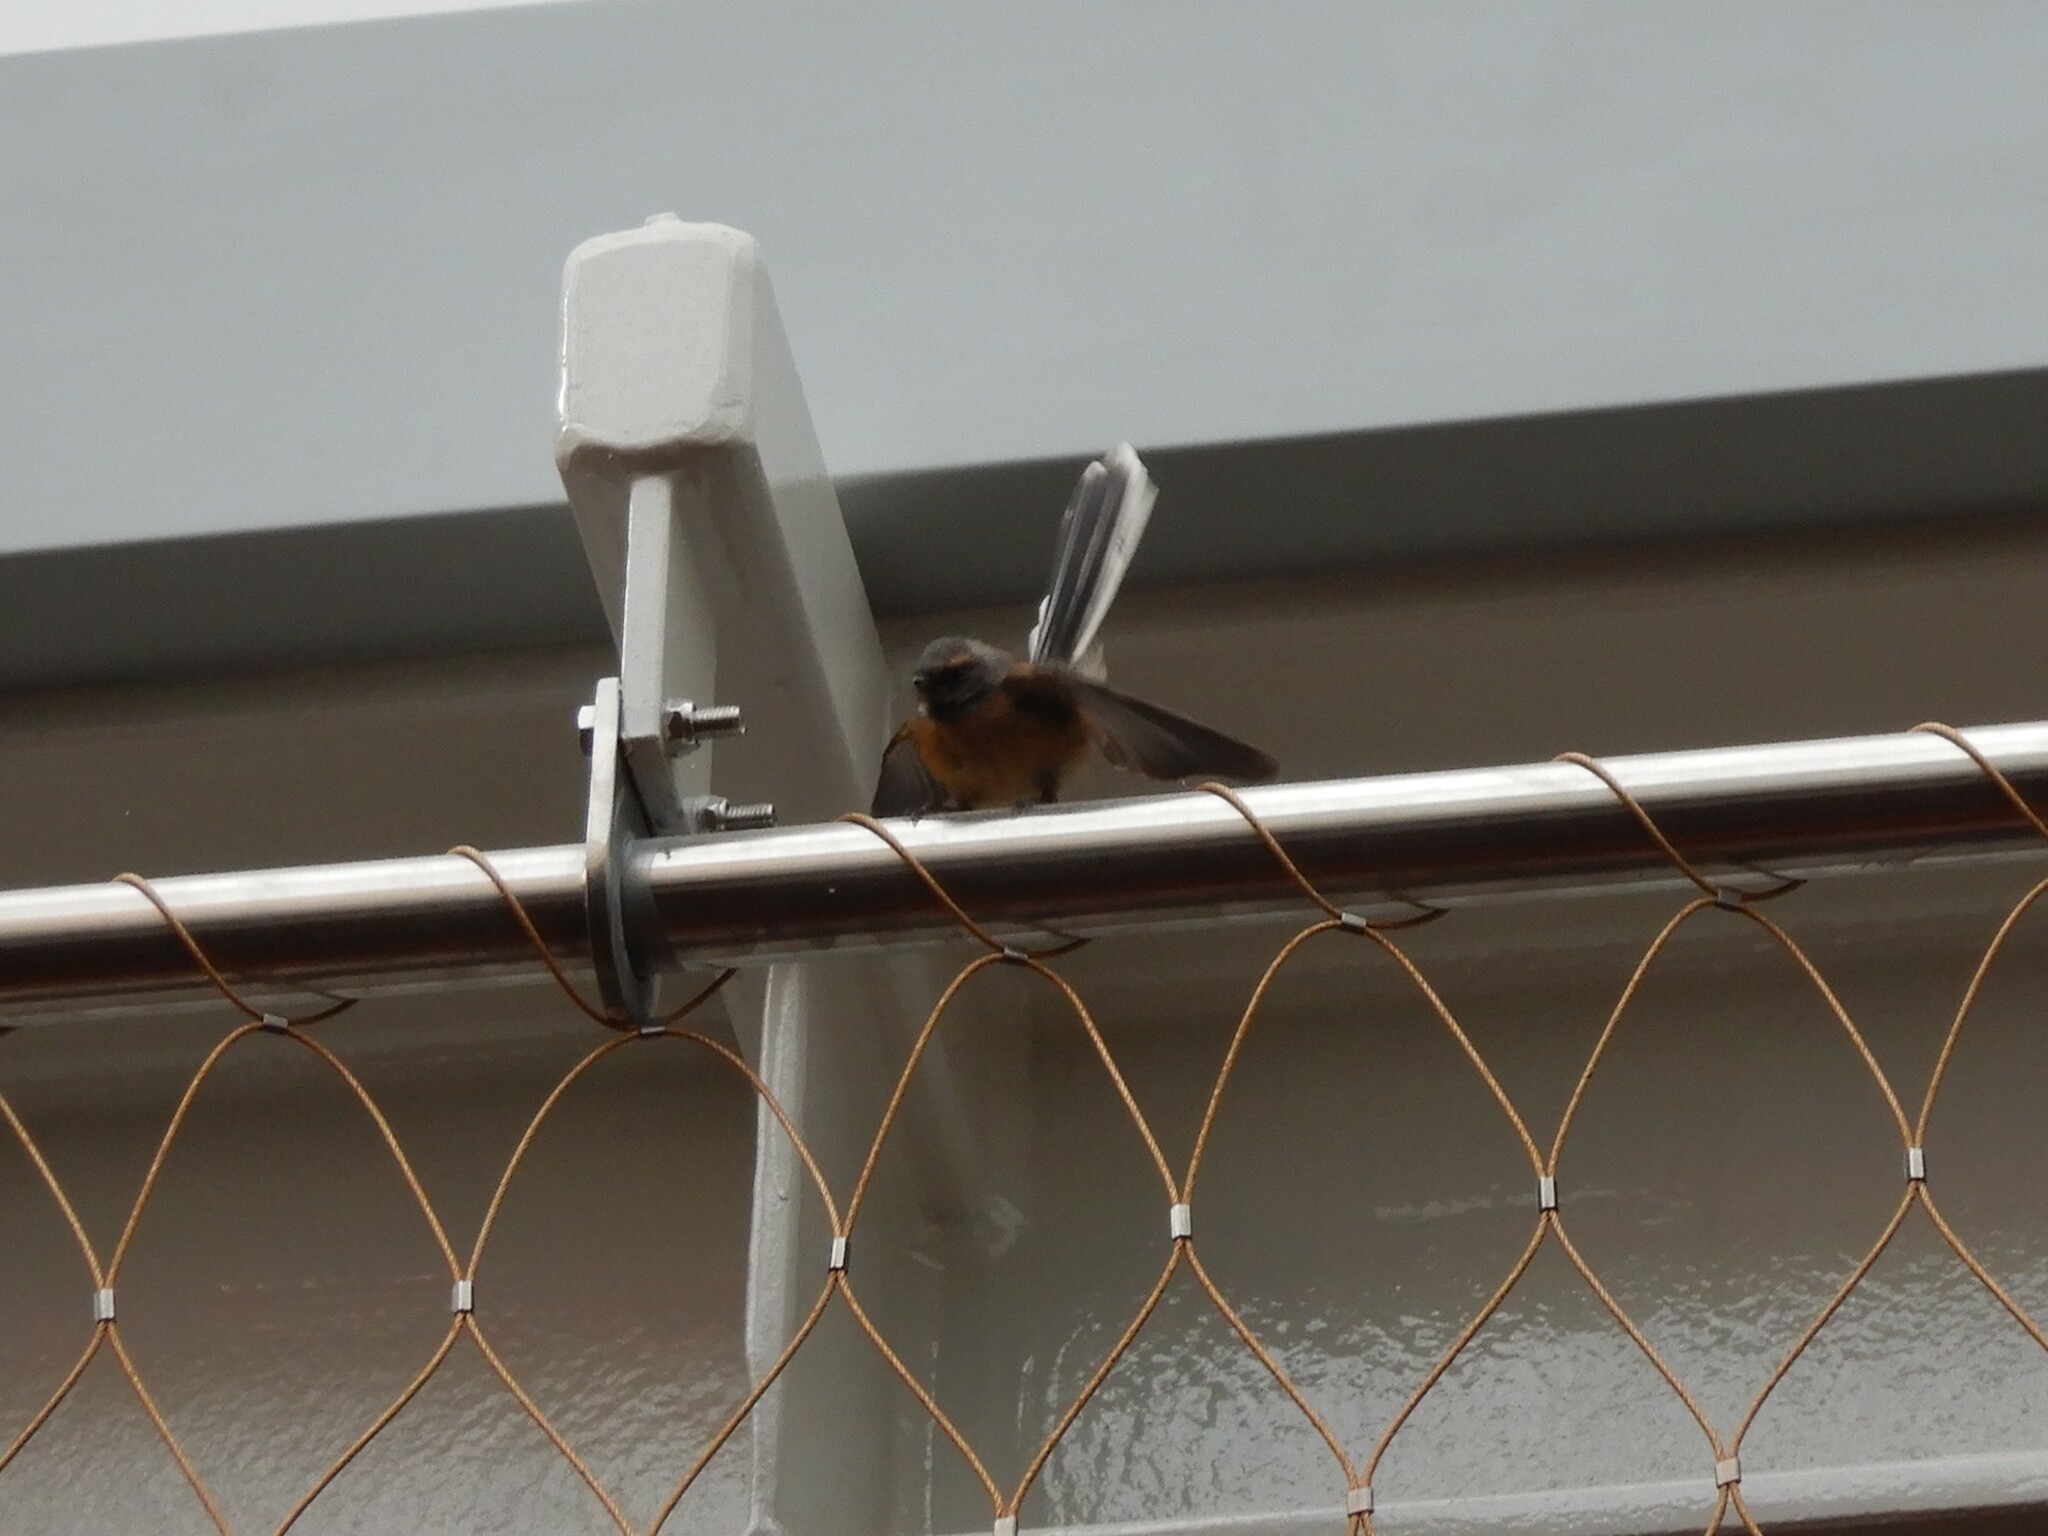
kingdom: Animalia
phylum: Chordata
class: Aves
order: Passeriformes
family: Rhipiduridae
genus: Rhipidura
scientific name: Rhipidura fuliginosa
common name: New zealand fantail
